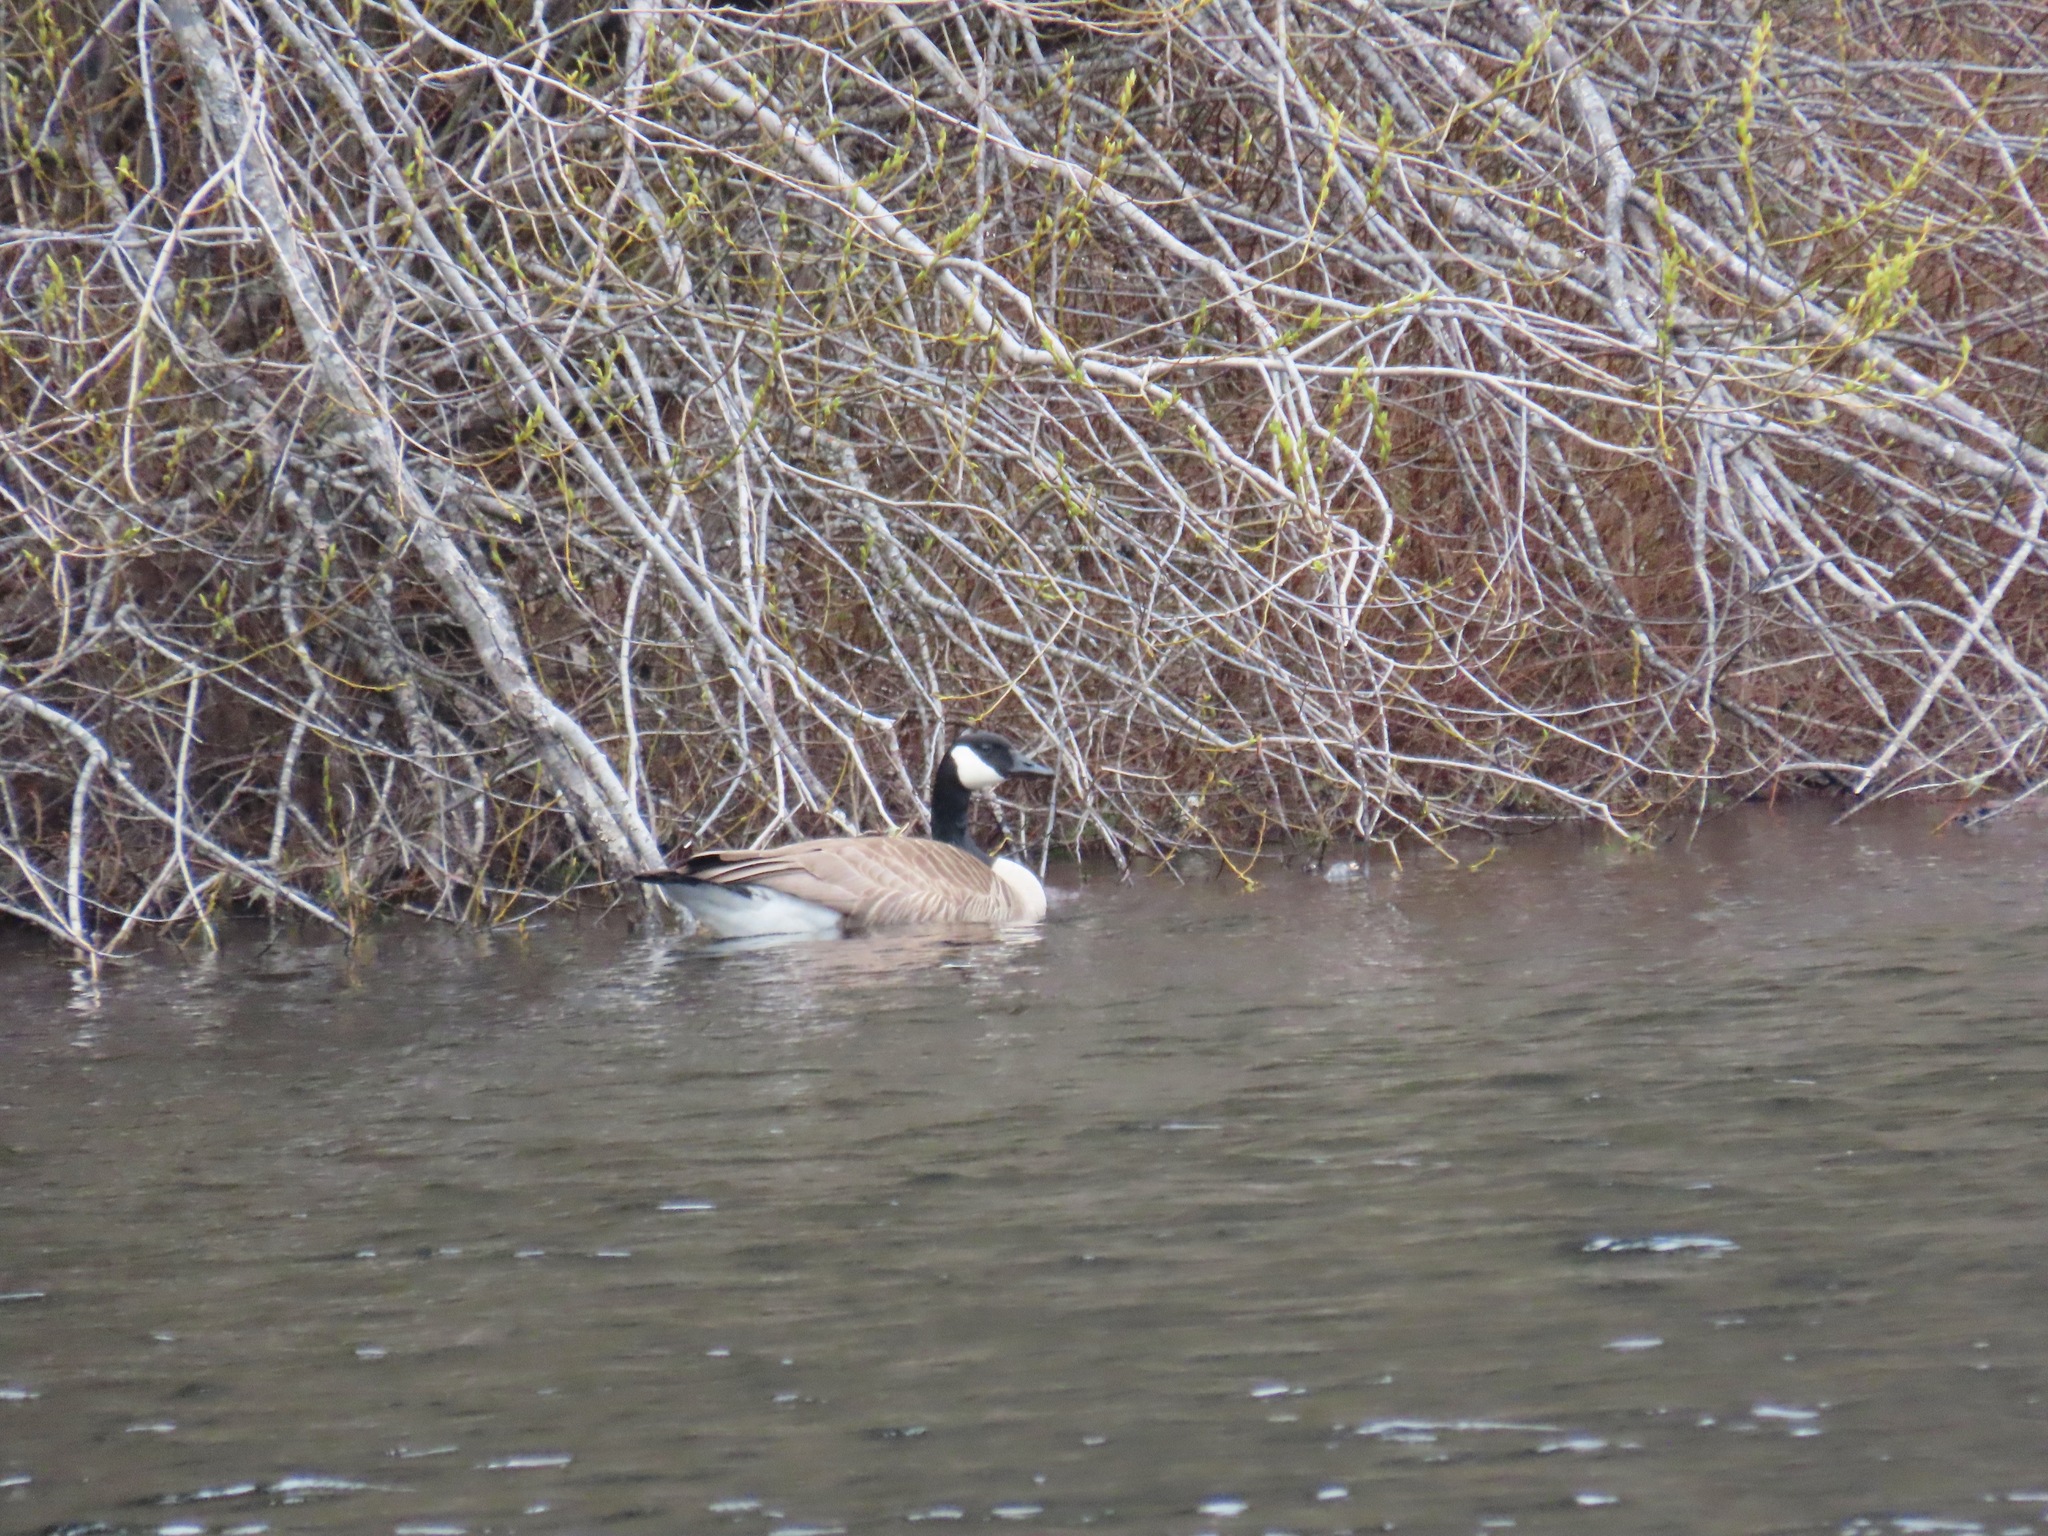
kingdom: Animalia
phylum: Chordata
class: Aves
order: Anseriformes
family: Anatidae
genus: Branta
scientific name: Branta canadensis
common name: Canada goose
